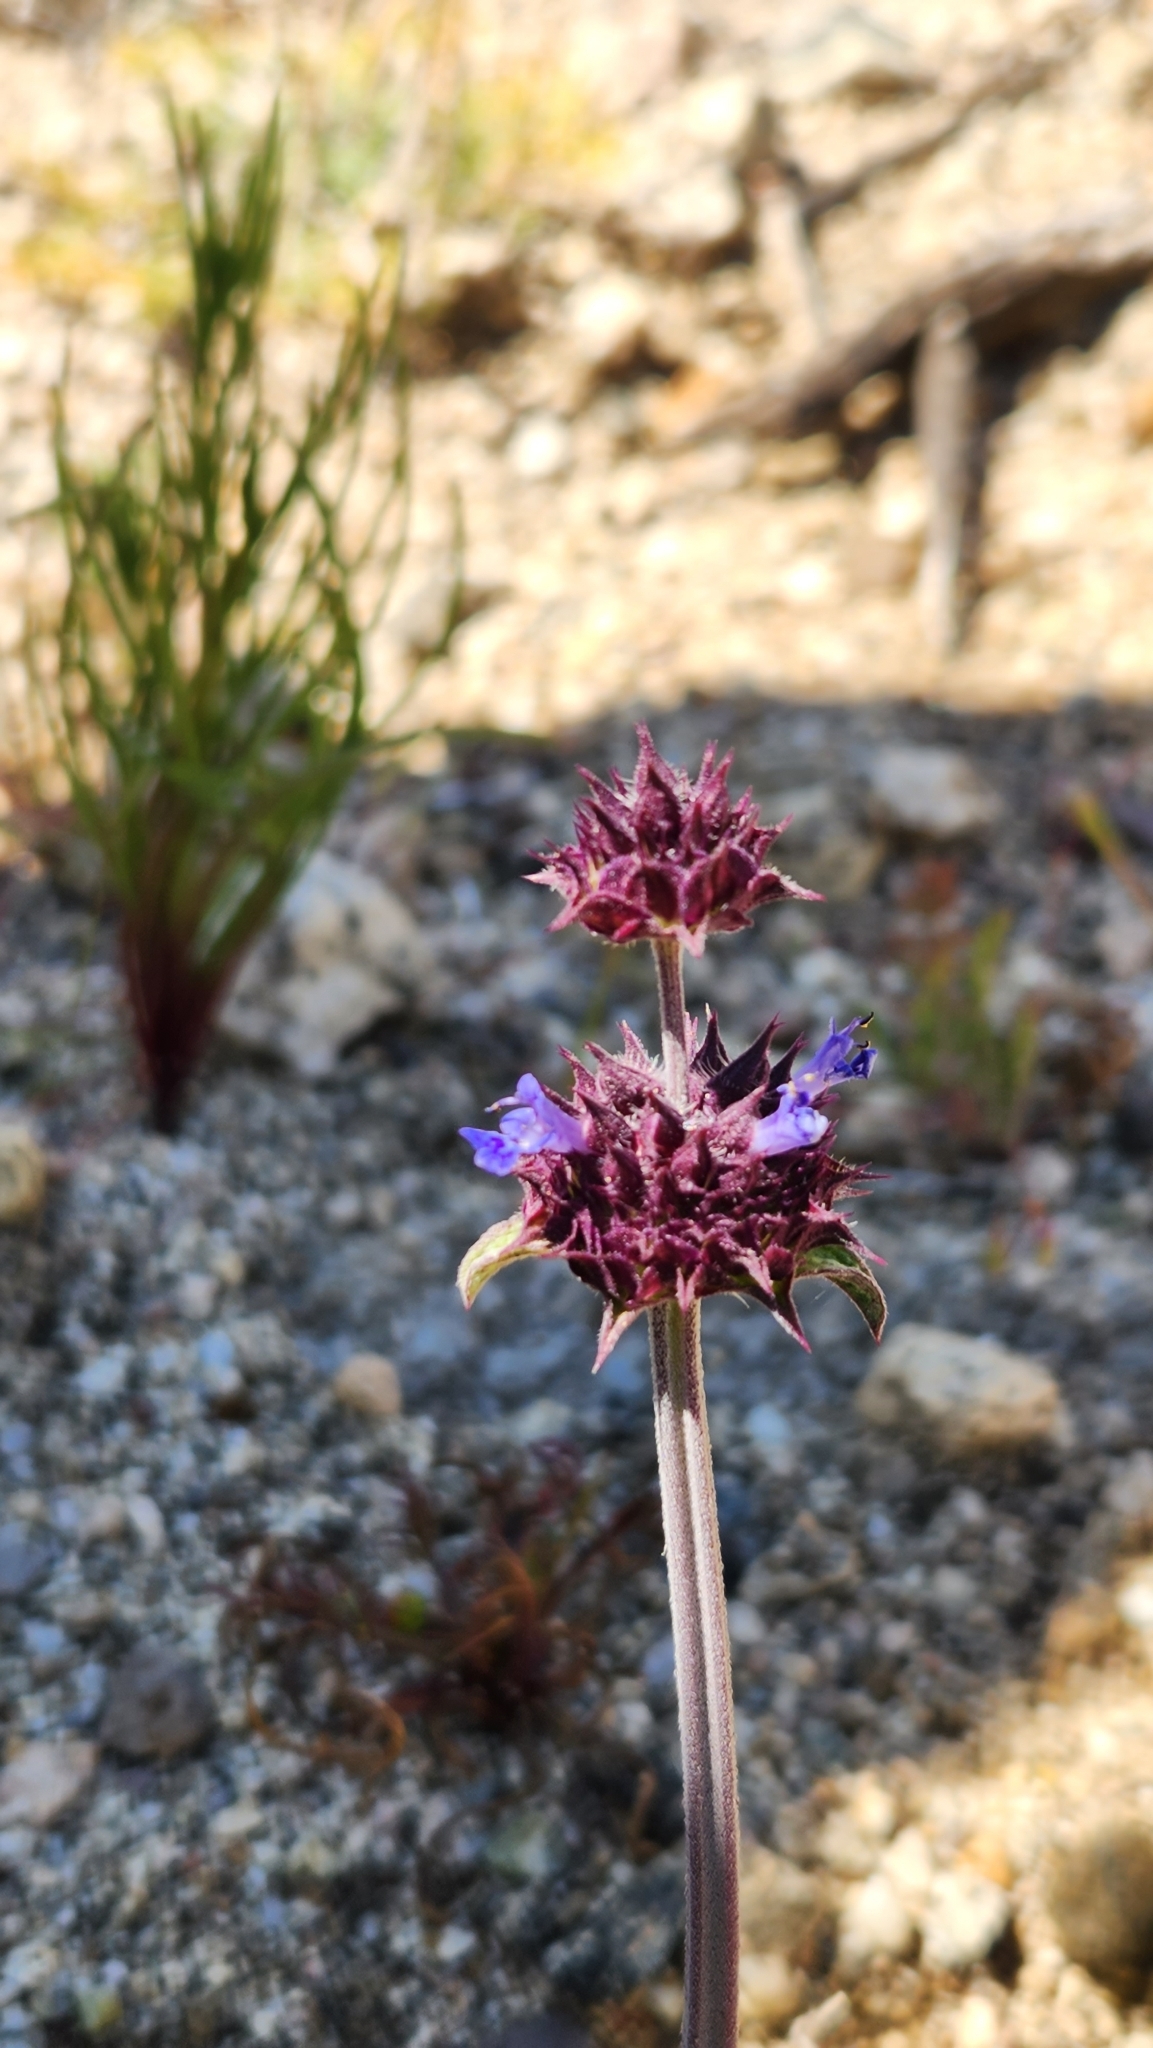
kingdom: Plantae
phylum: Tracheophyta
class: Magnoliopsida
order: Lamiales
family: Lamiaceae
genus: Salvia
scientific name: Salvia columbariae
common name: Chia
